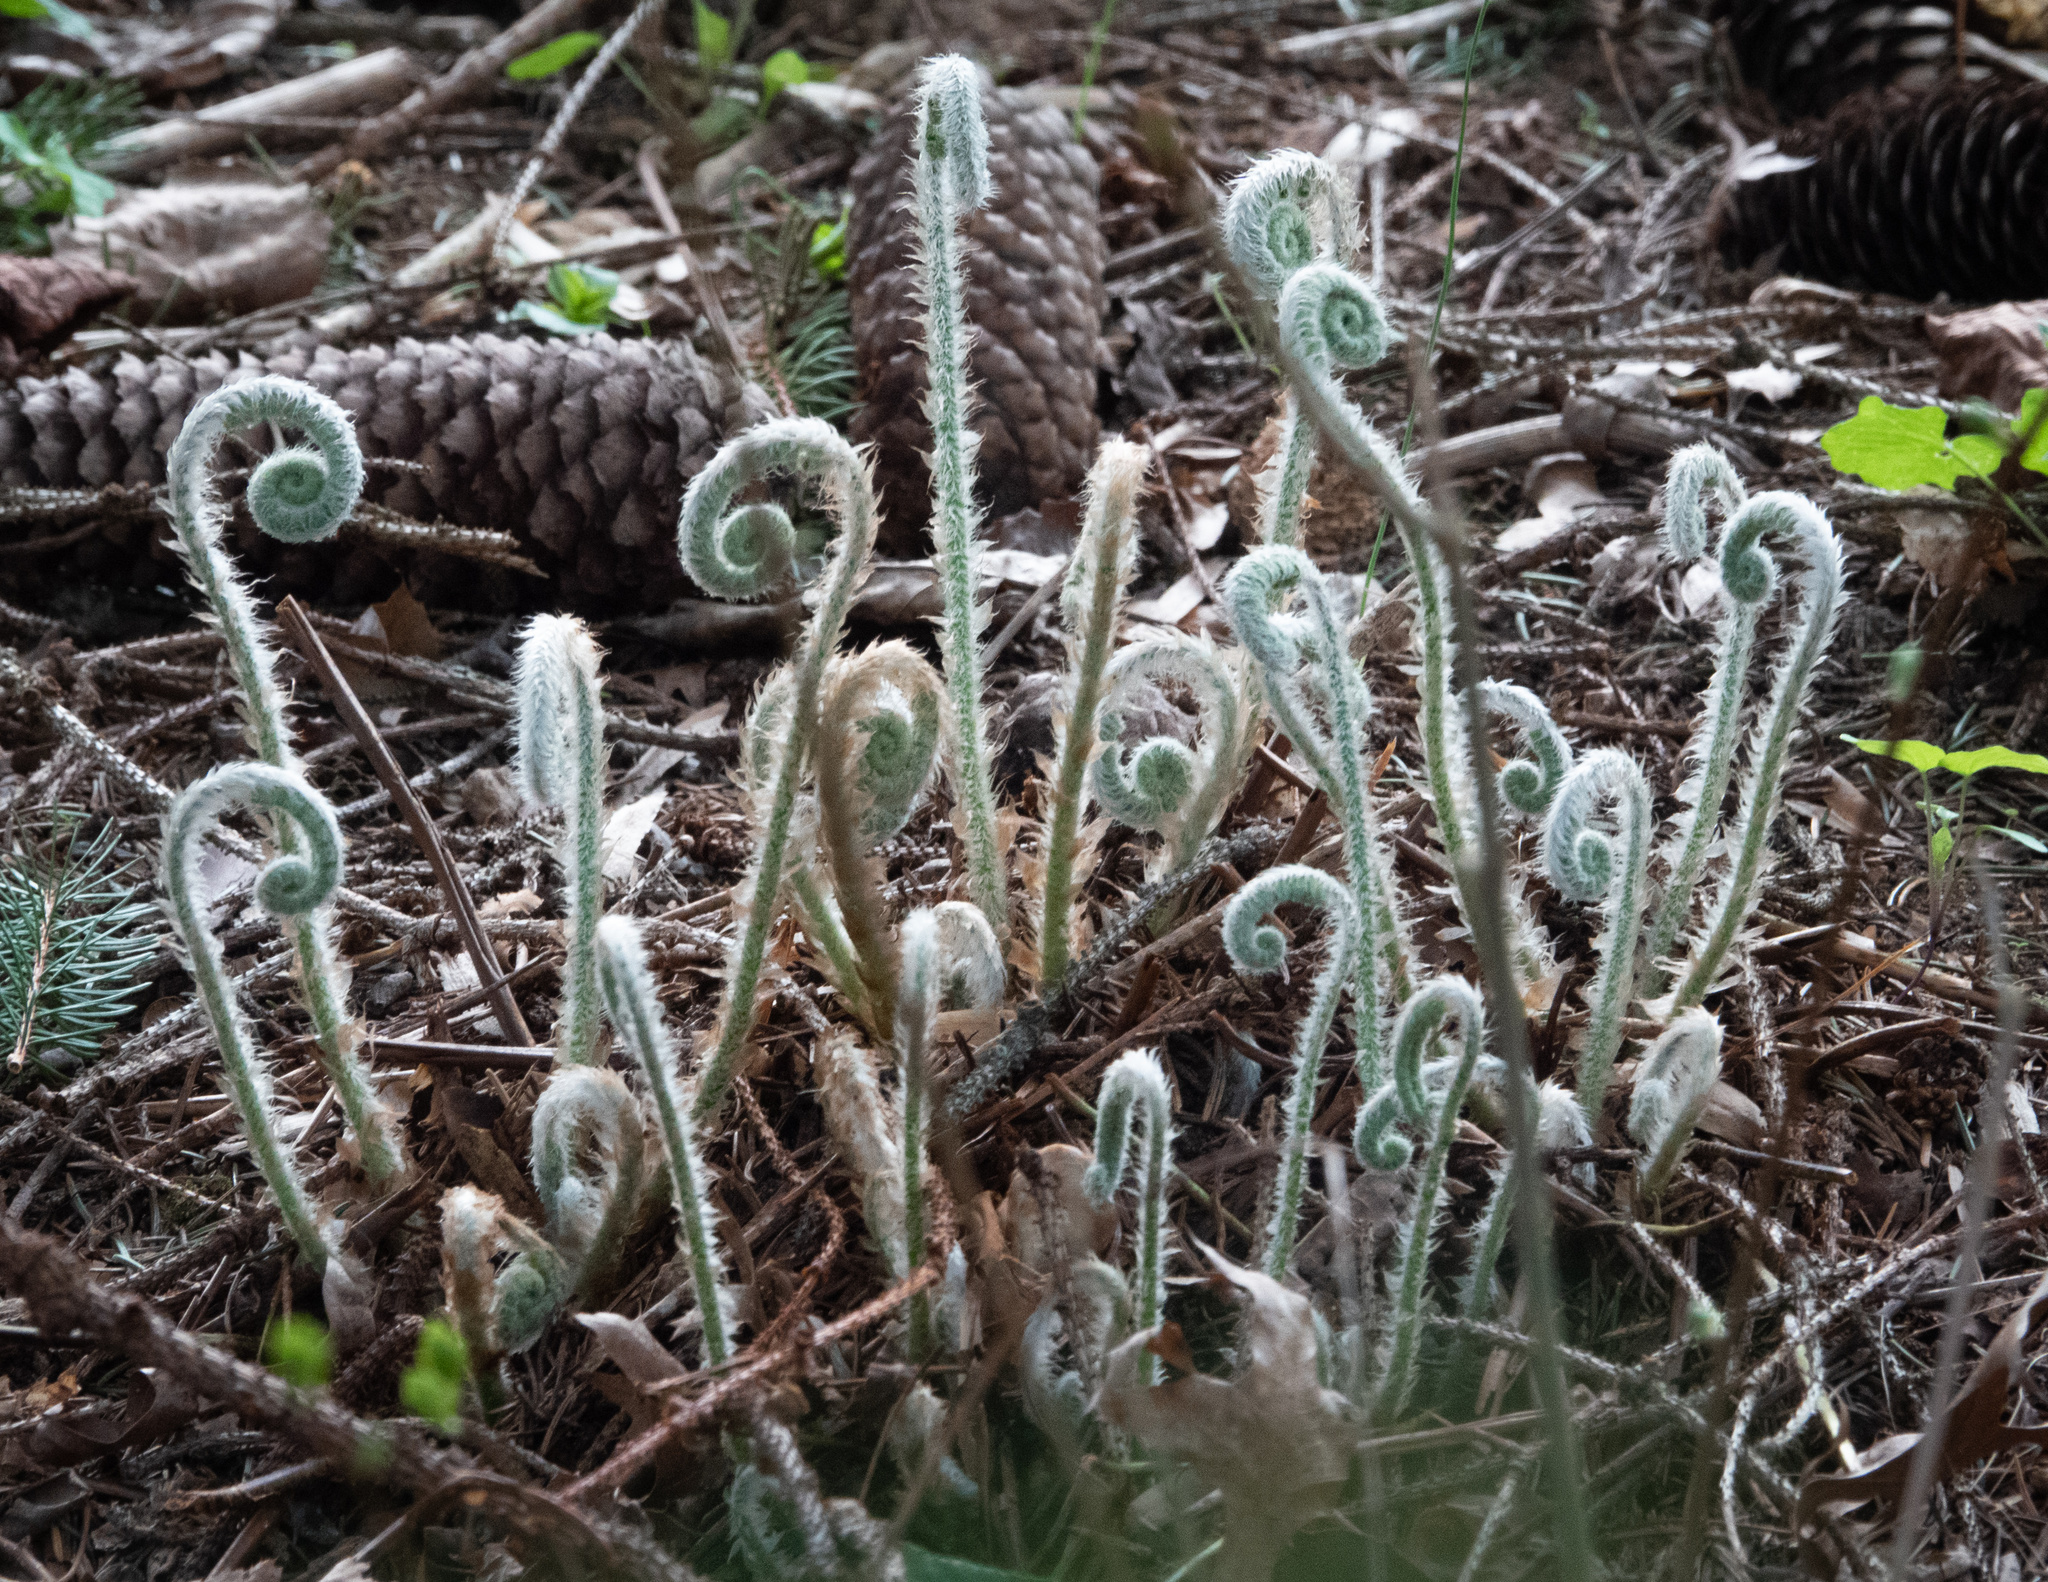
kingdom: Plantae
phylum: Tracheophyta
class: Polypodiopsida
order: Polypodiales
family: Dryopteridaceae
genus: Polystichum
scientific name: Polystichum acrostichoides
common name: Christmas fern
